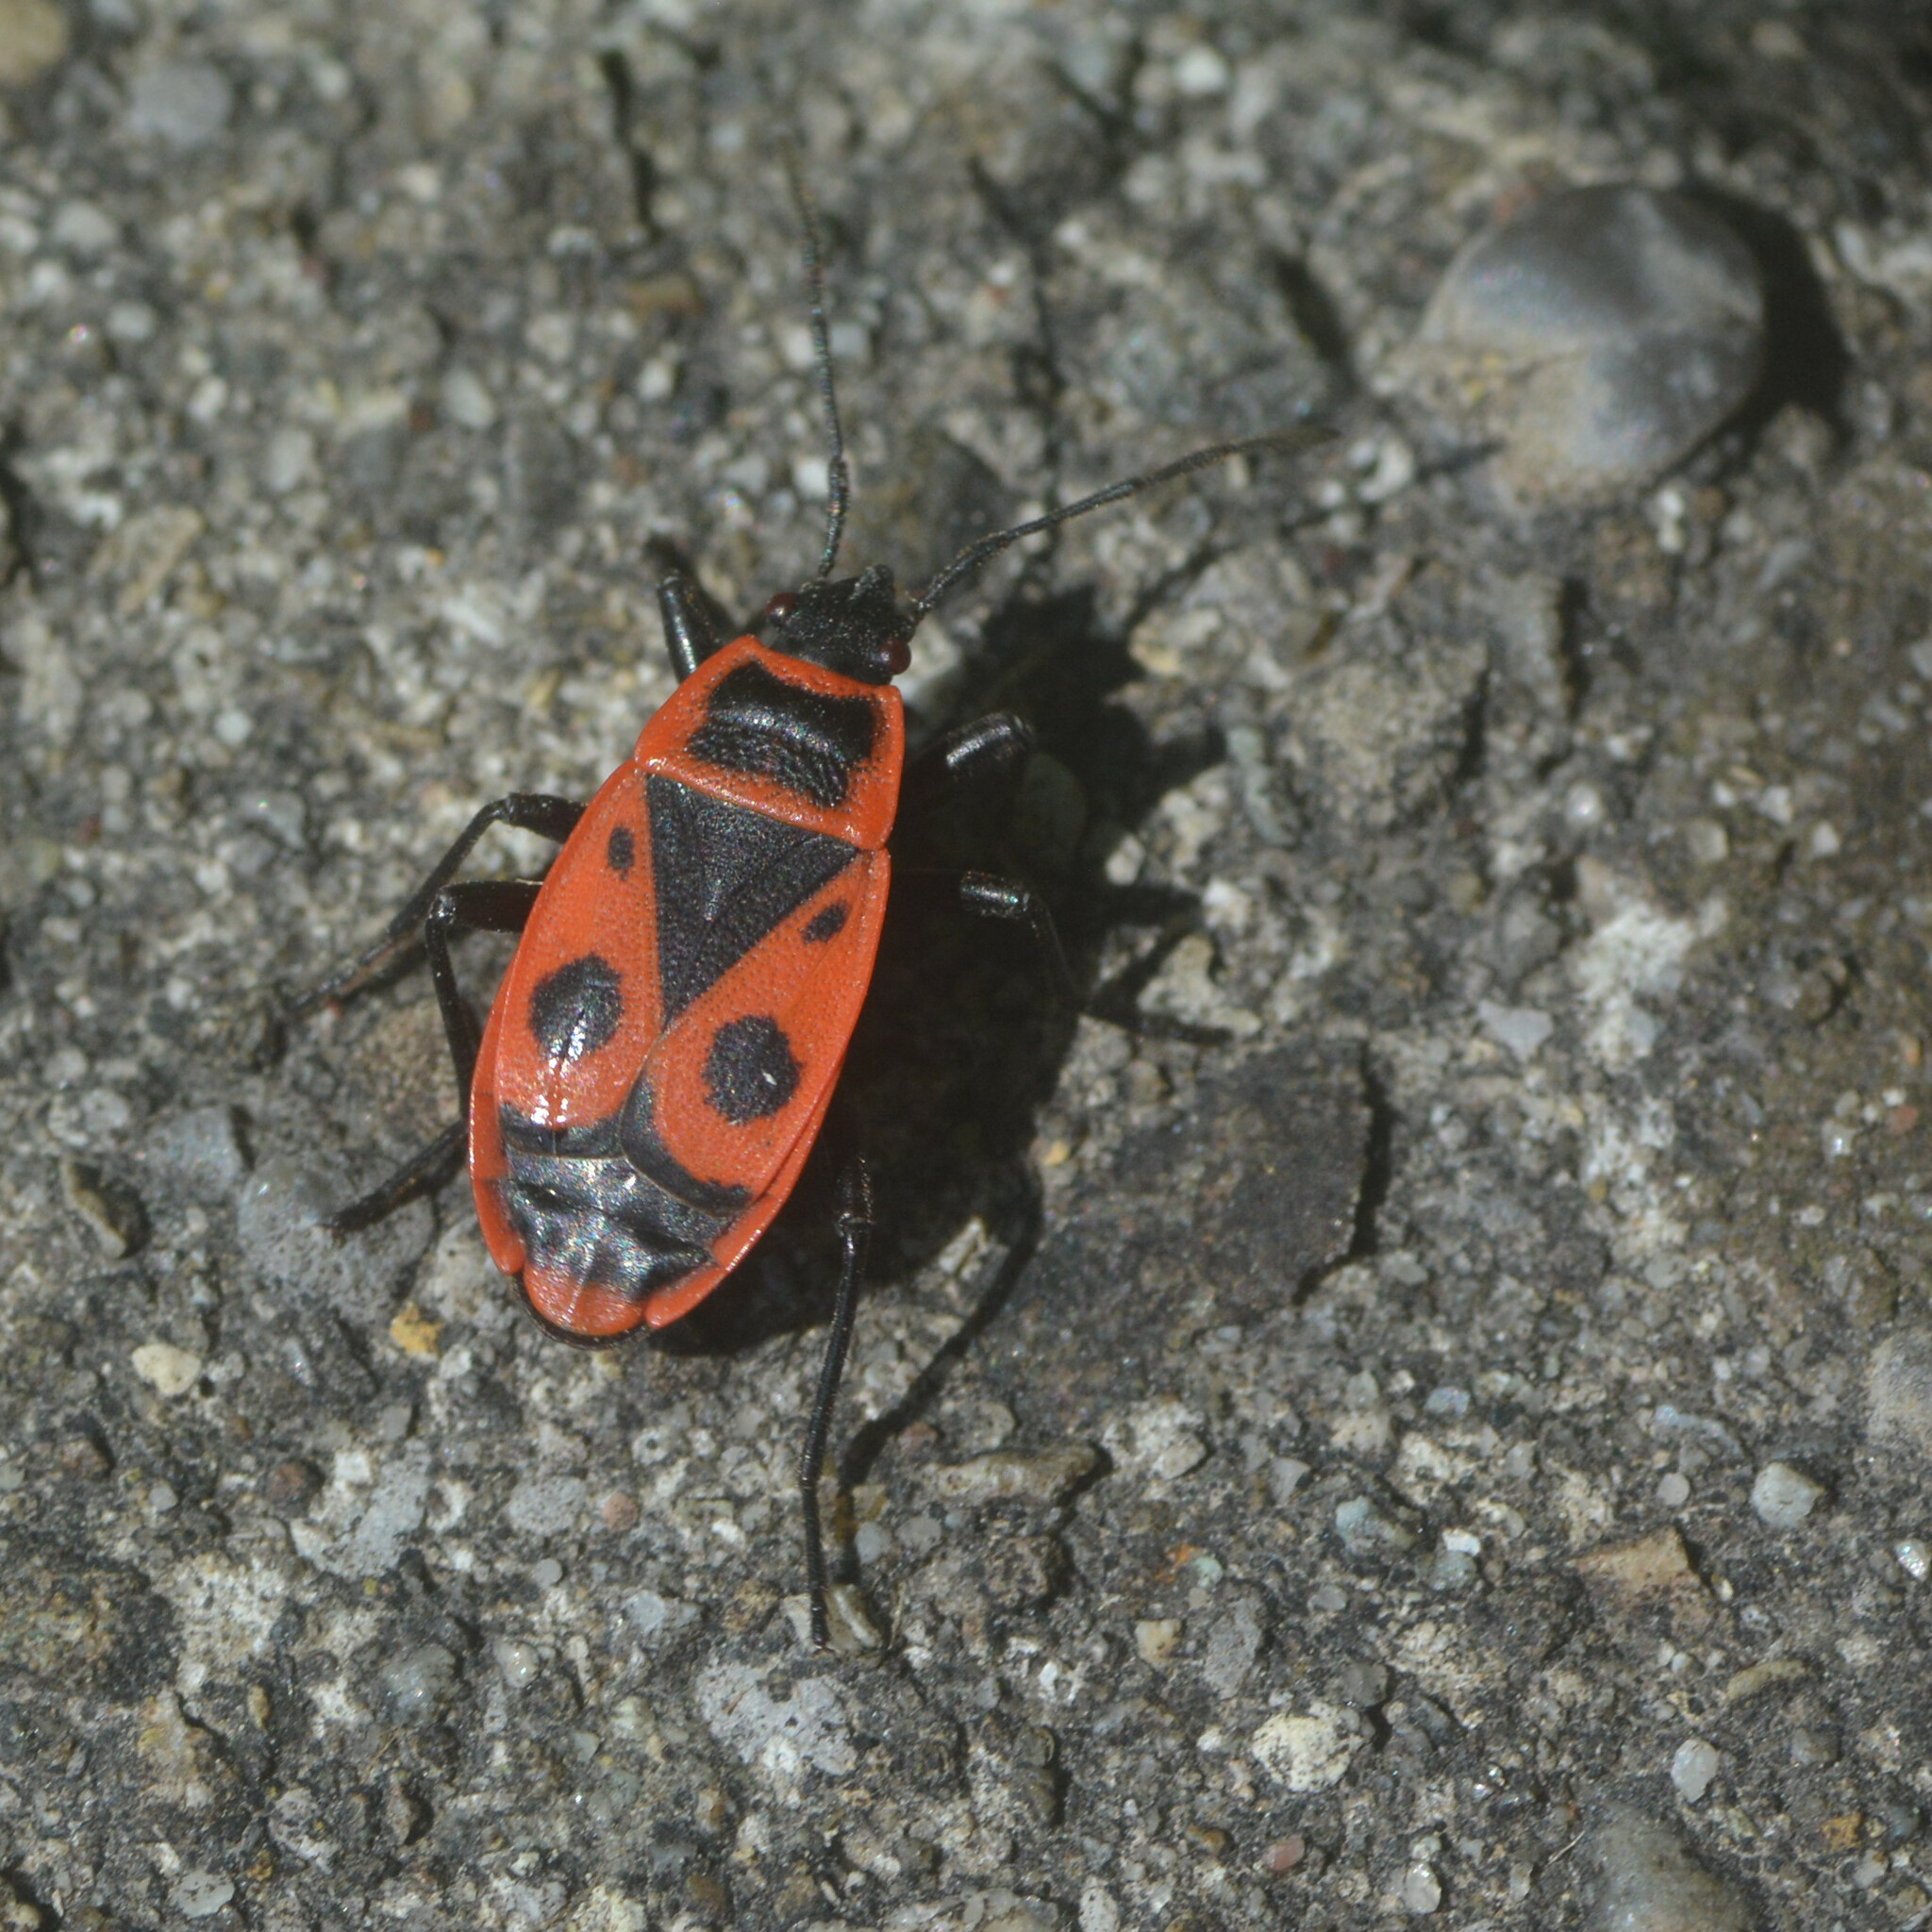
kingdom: Animalia
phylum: Arthropoda
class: Insecta
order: Hemiptera
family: Pyrrhocoridae
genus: Pyrrhocoris
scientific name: Pyrrhocoris apterus
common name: Firebug
